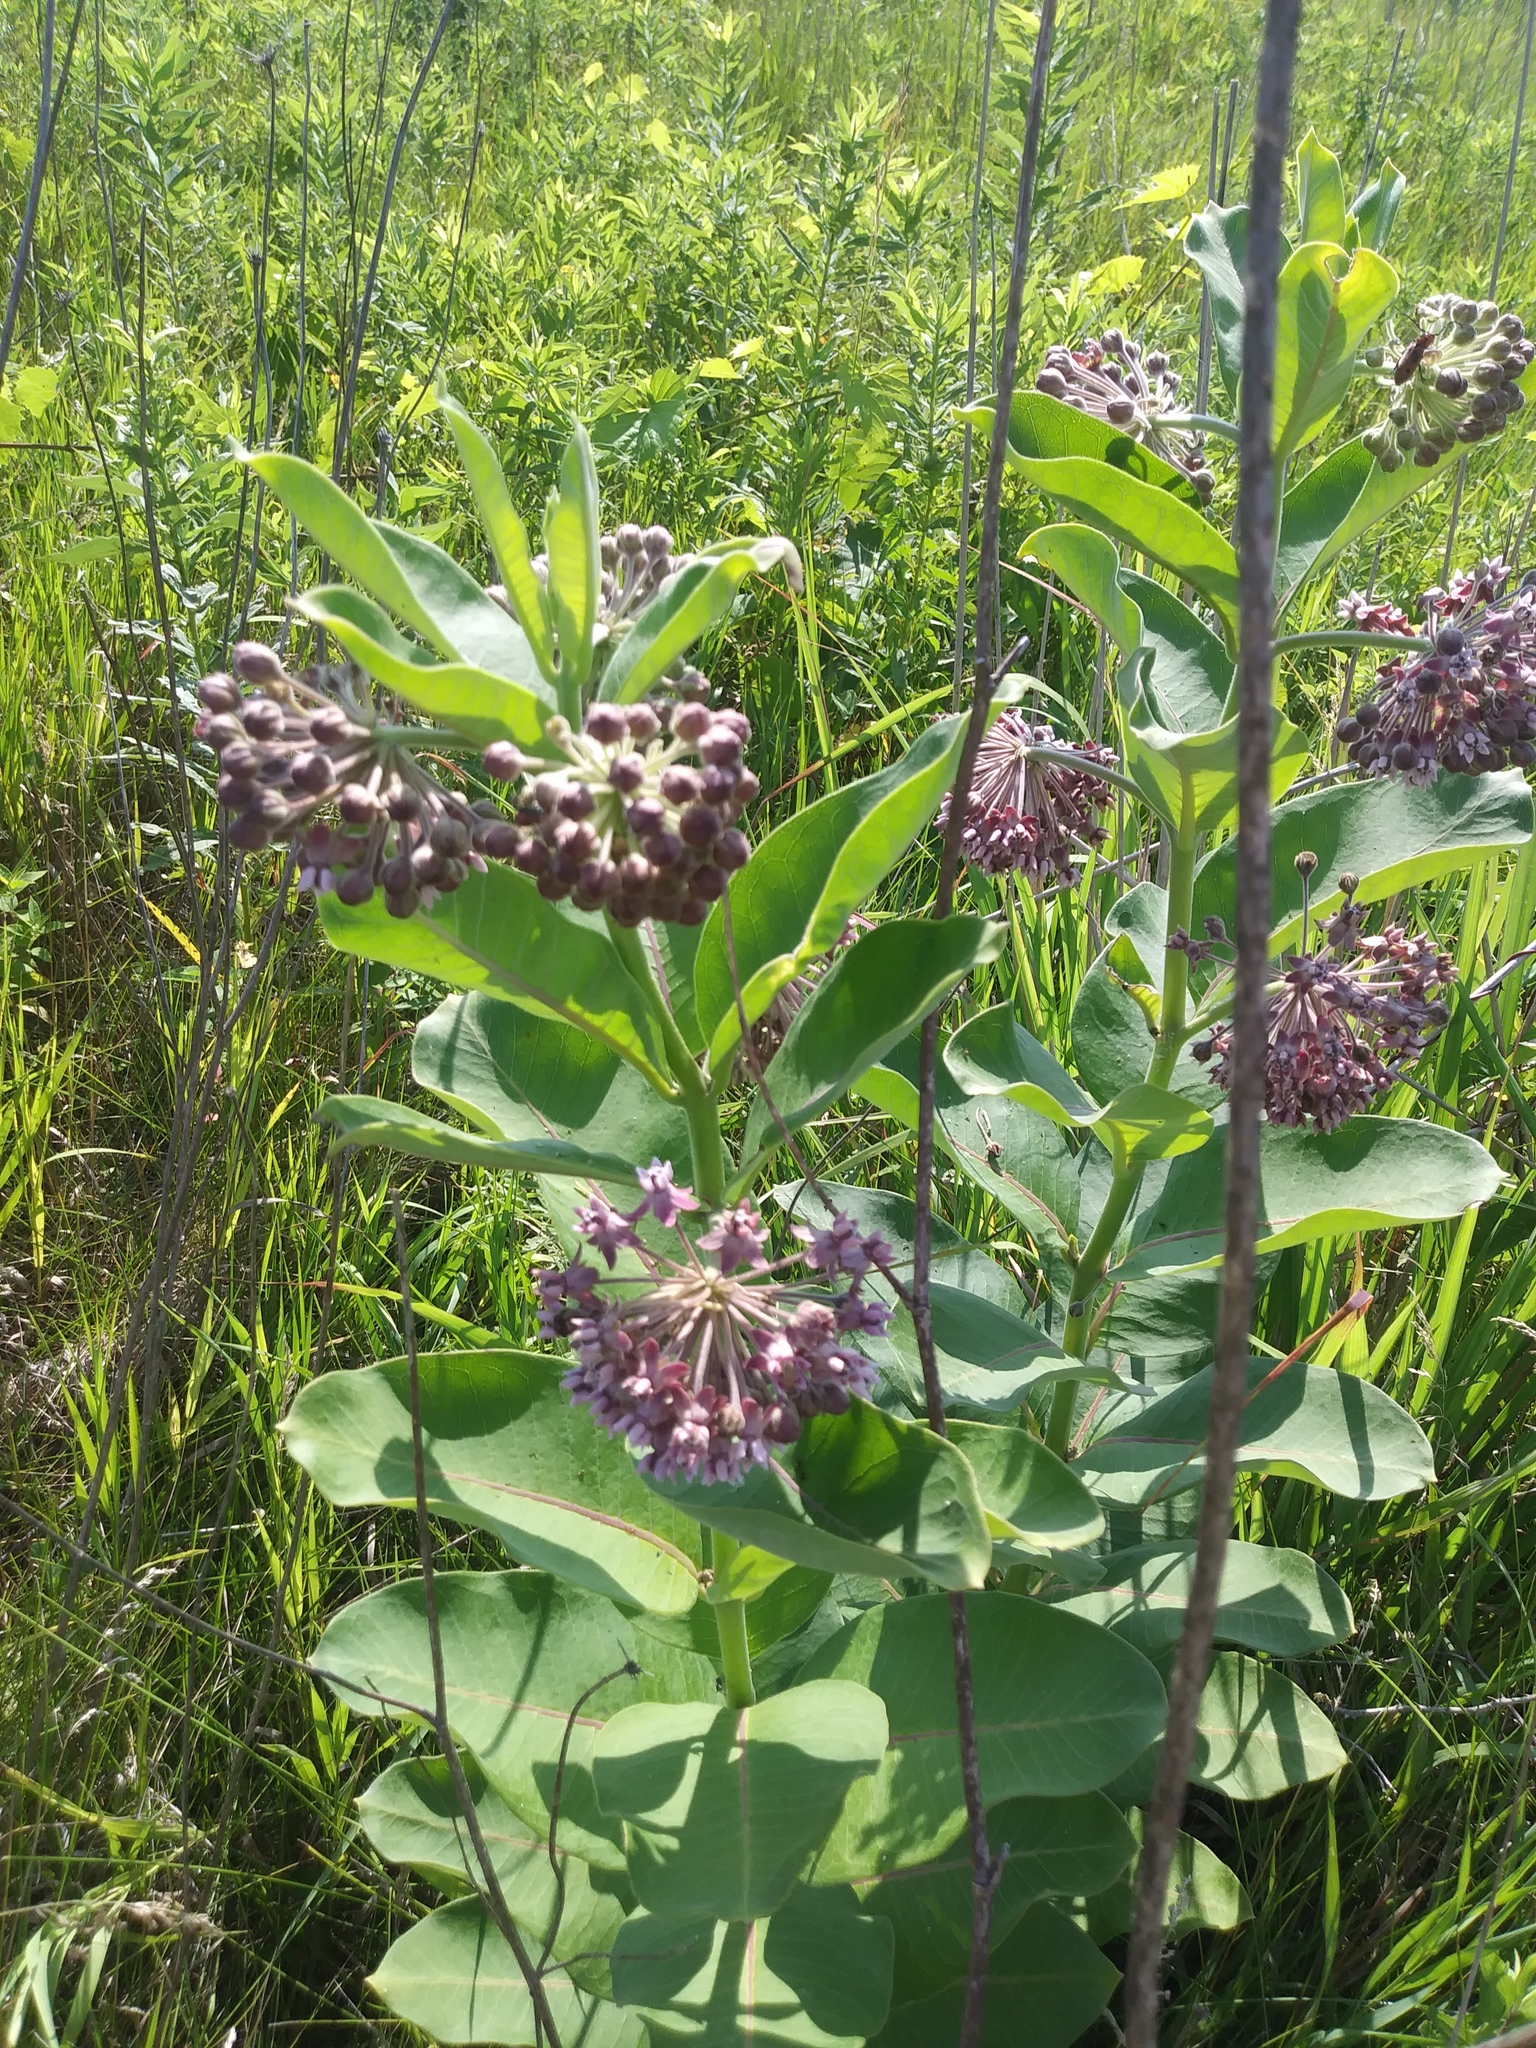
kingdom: Plantae
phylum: Tracheophyta
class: Magnoliopsida
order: Gentianales
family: Apocynaceae
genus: Asclepias
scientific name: Asclepias syriaca
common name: Common milkweed
